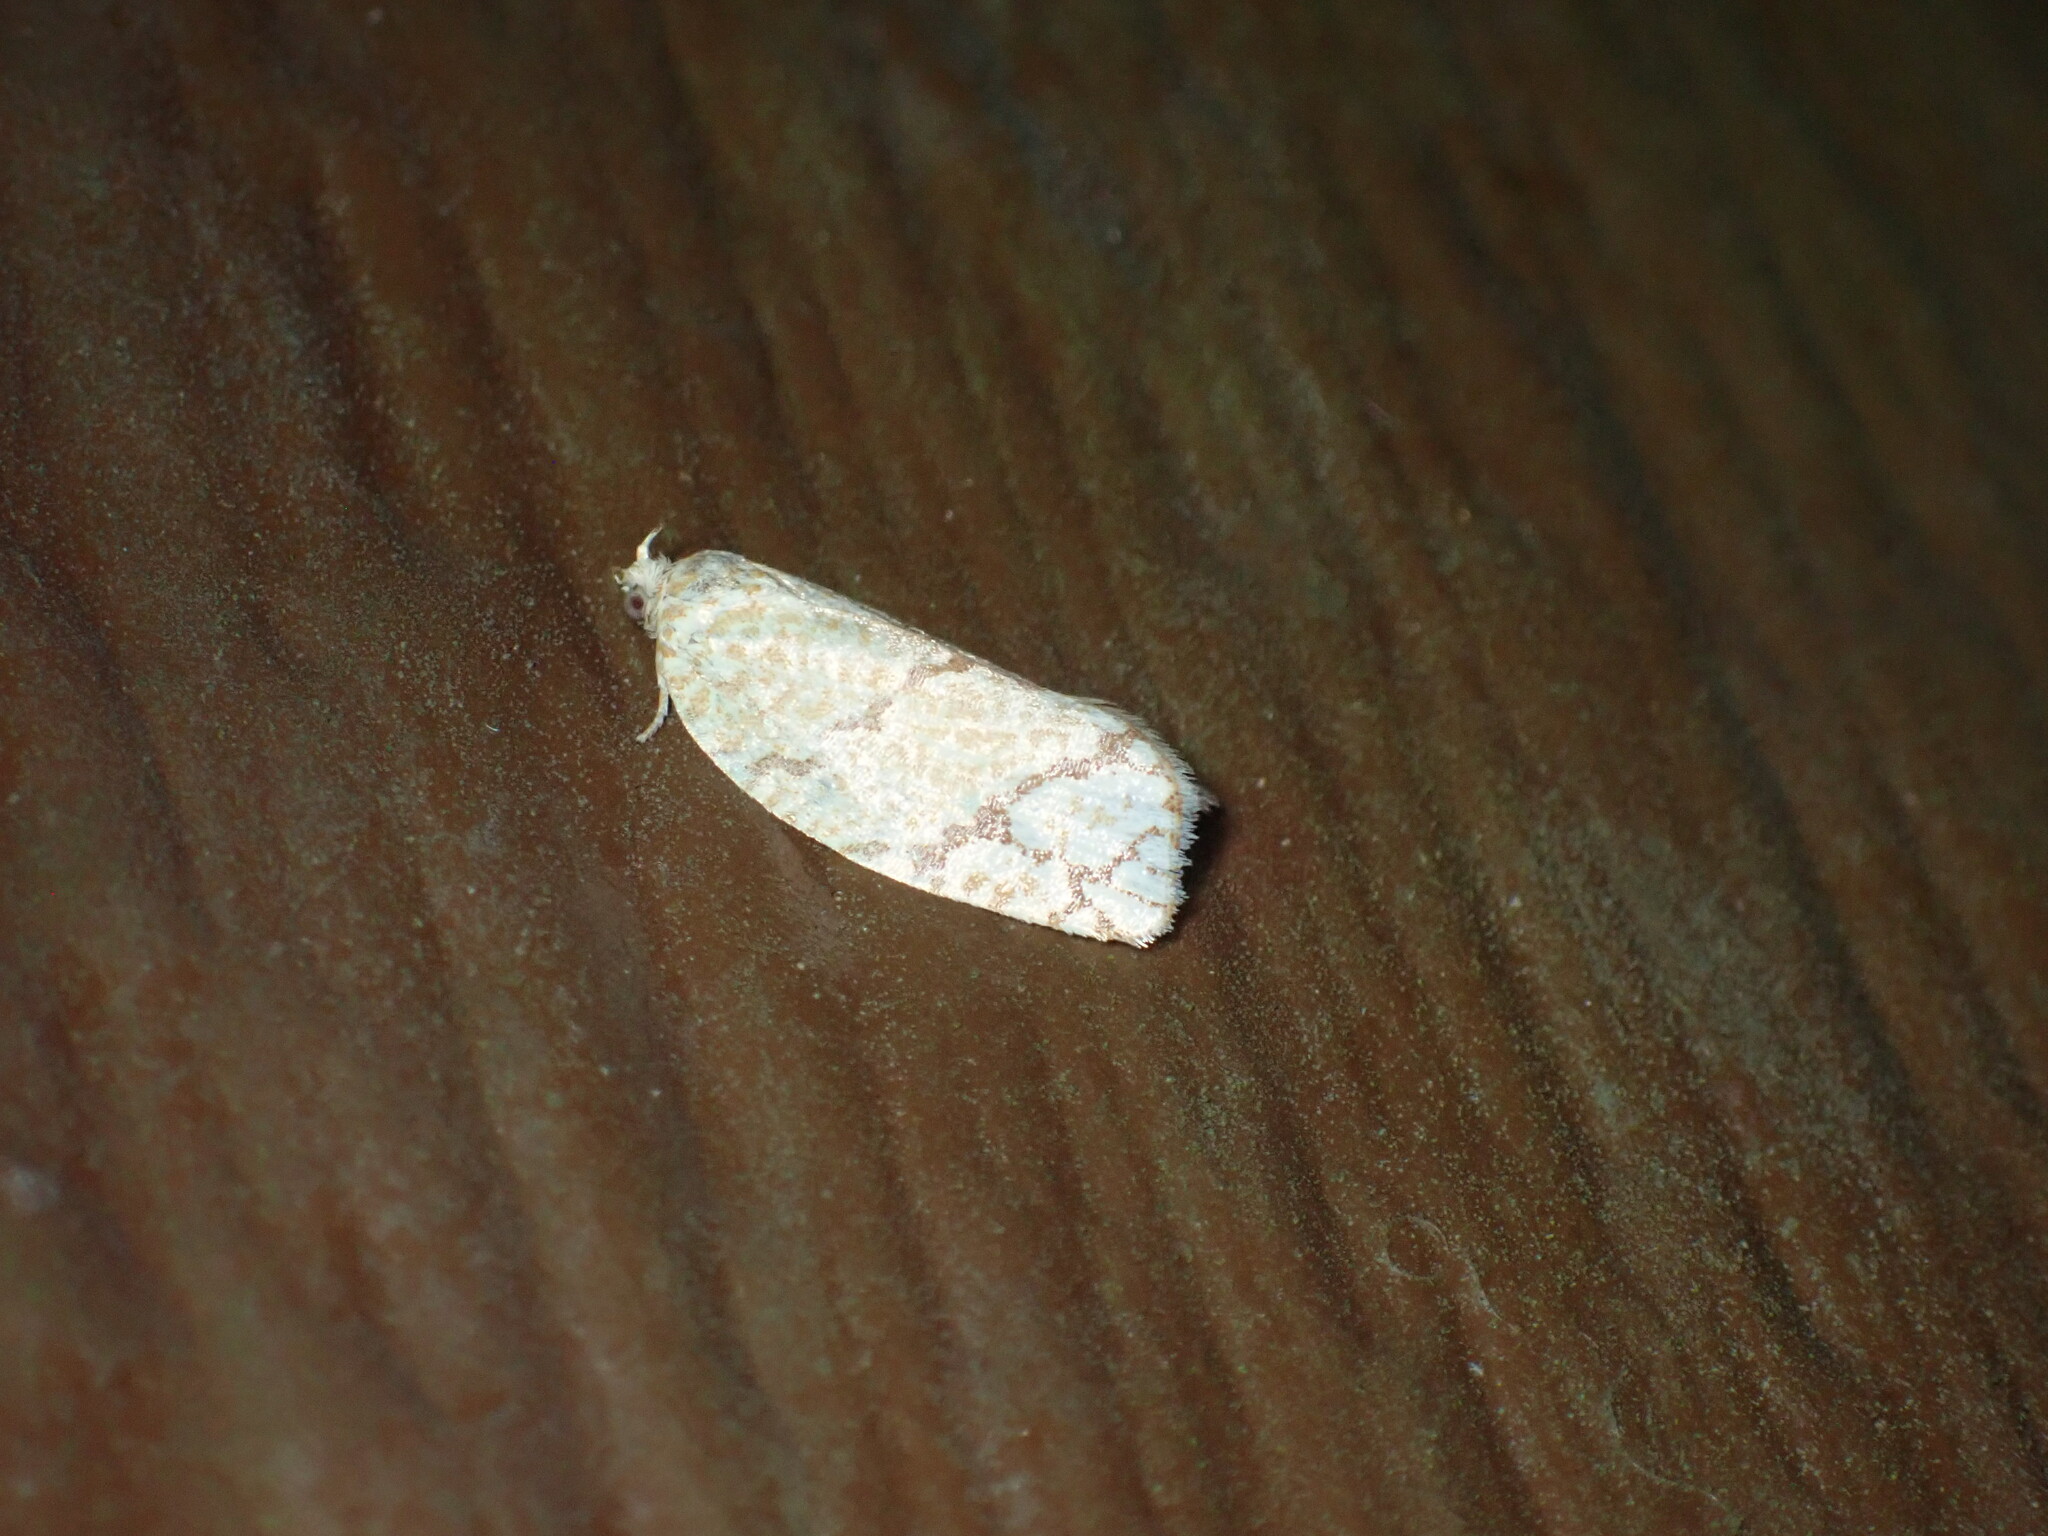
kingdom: Animalia
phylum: Arthropoda
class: Insecta
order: Lepidoptera
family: Tortricidae
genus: Argyrotaenia
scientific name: Argyrotaenia quercifoliana
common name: Yellow-winged oak leafroller moth
